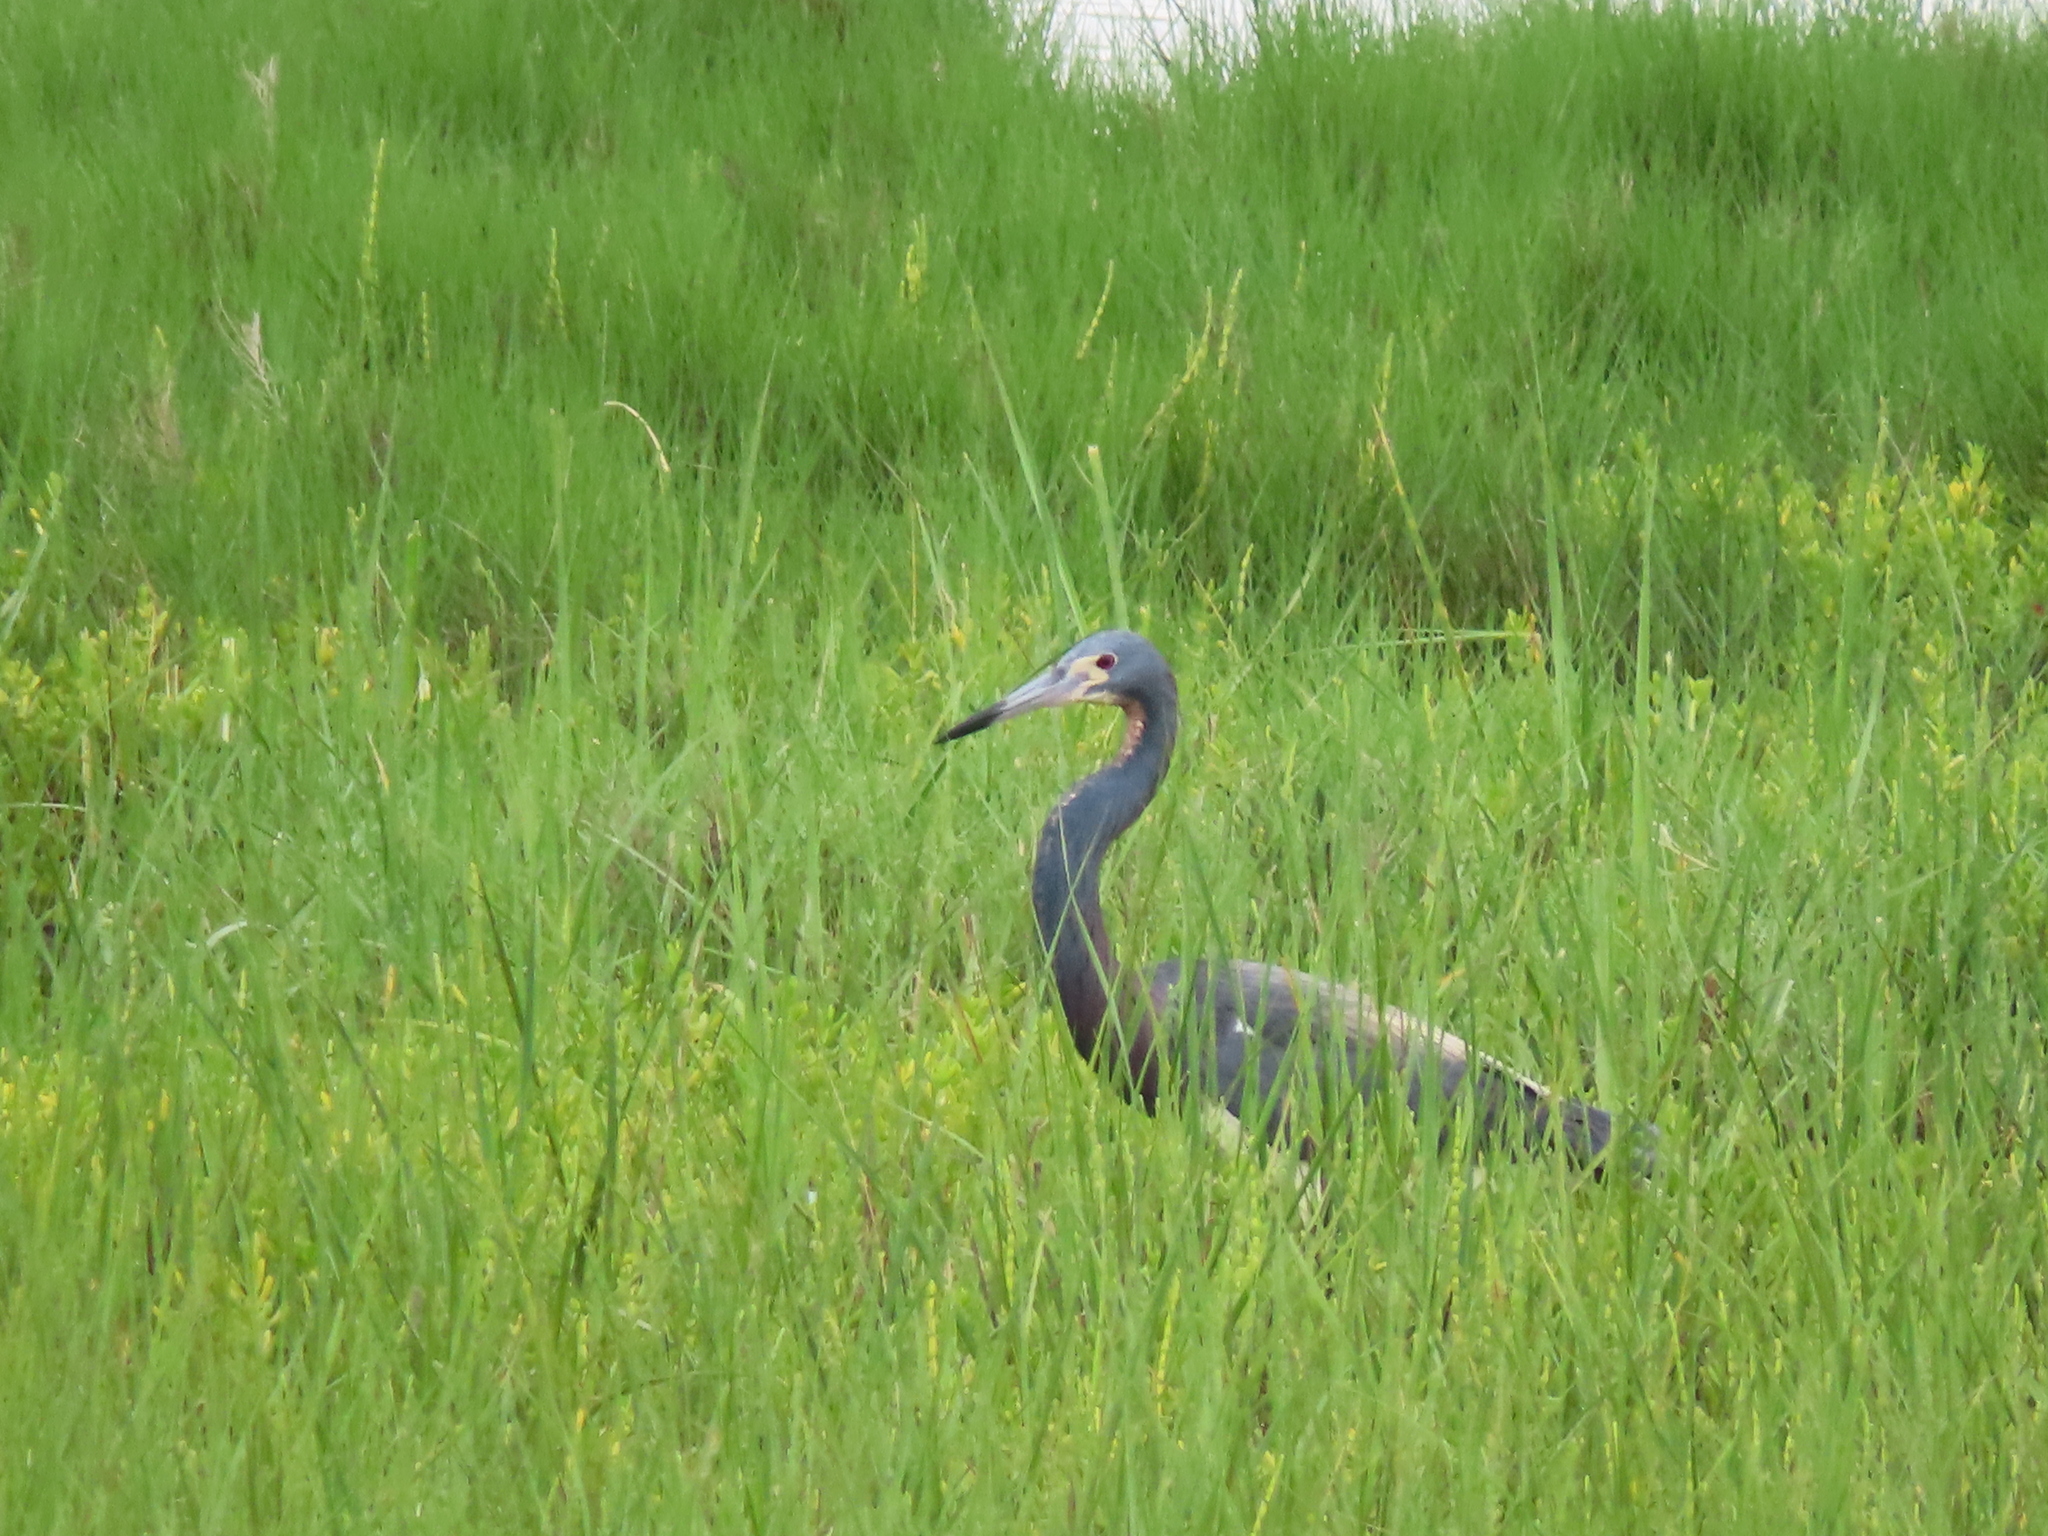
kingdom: Animalia
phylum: Chordata
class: Aves
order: Pelecaniformes
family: Ardeidae
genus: Egretta
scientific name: Egretta tricolor
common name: Tricolored heron
